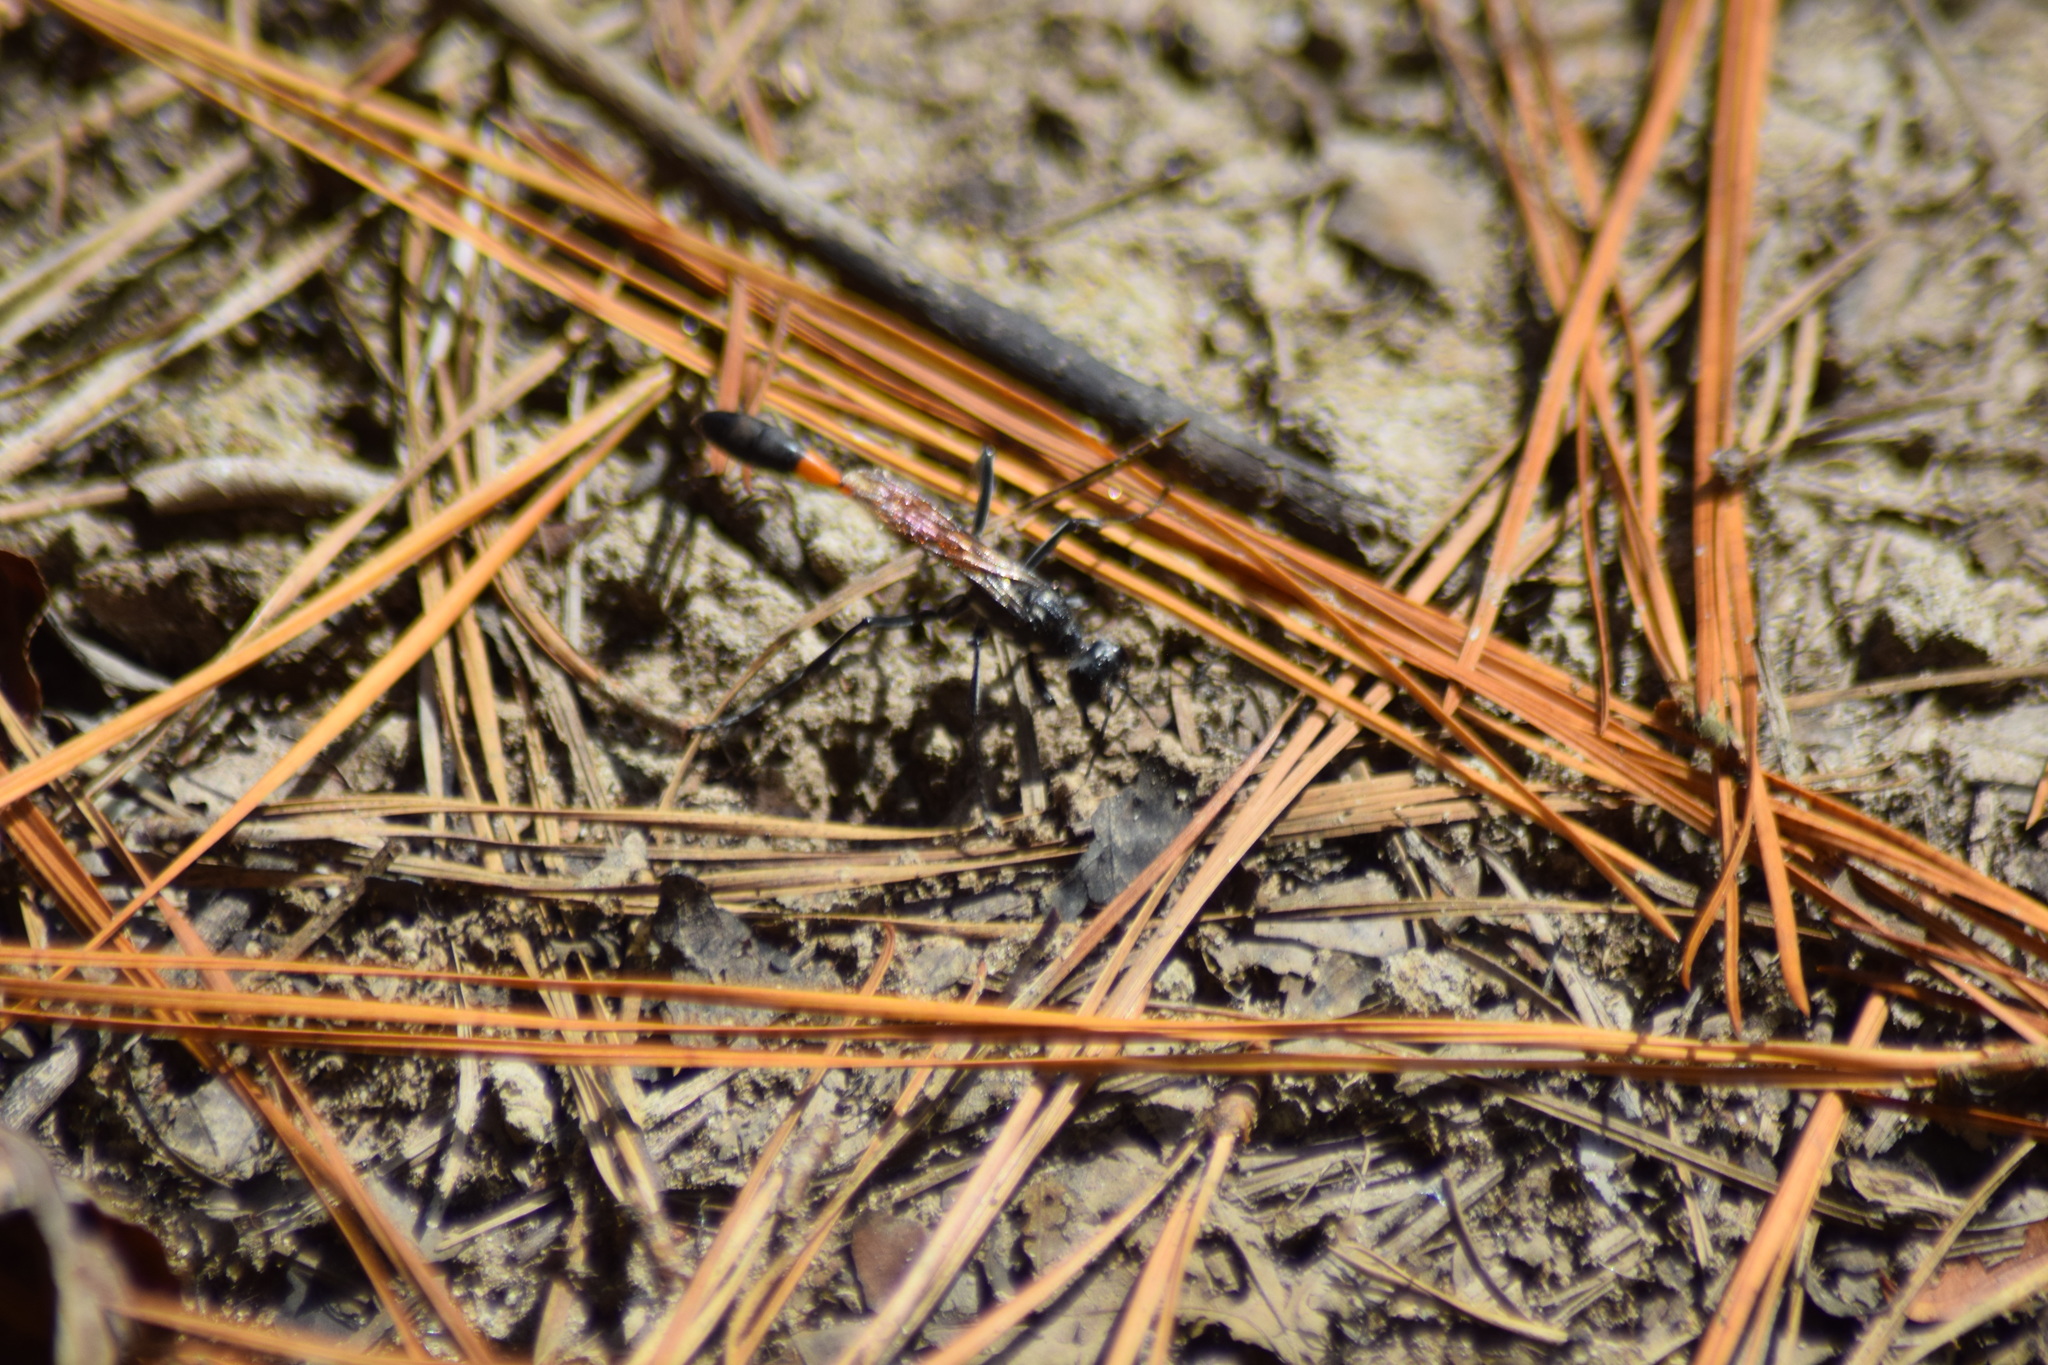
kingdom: Animalia
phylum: Arthropoda
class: Insecta
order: Hymenoptera
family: Sphecidae
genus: Ammophila
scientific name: Ammophila procera
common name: Common thread-waisted wasp
